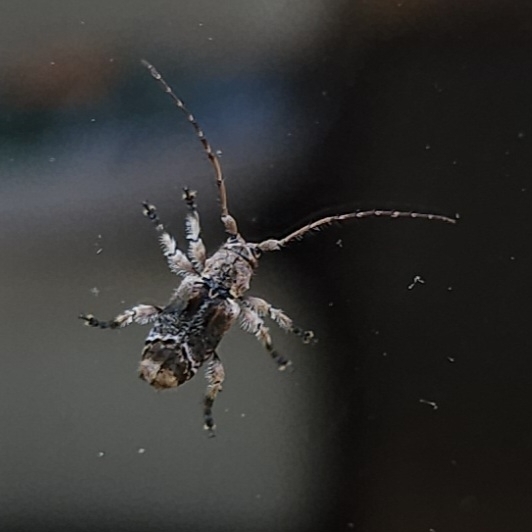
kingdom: Animalia
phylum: Arthropoda
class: Insecta
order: Coleoptera
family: Cerambycidae
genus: Hybolasius
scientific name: Hybolasius cristus
